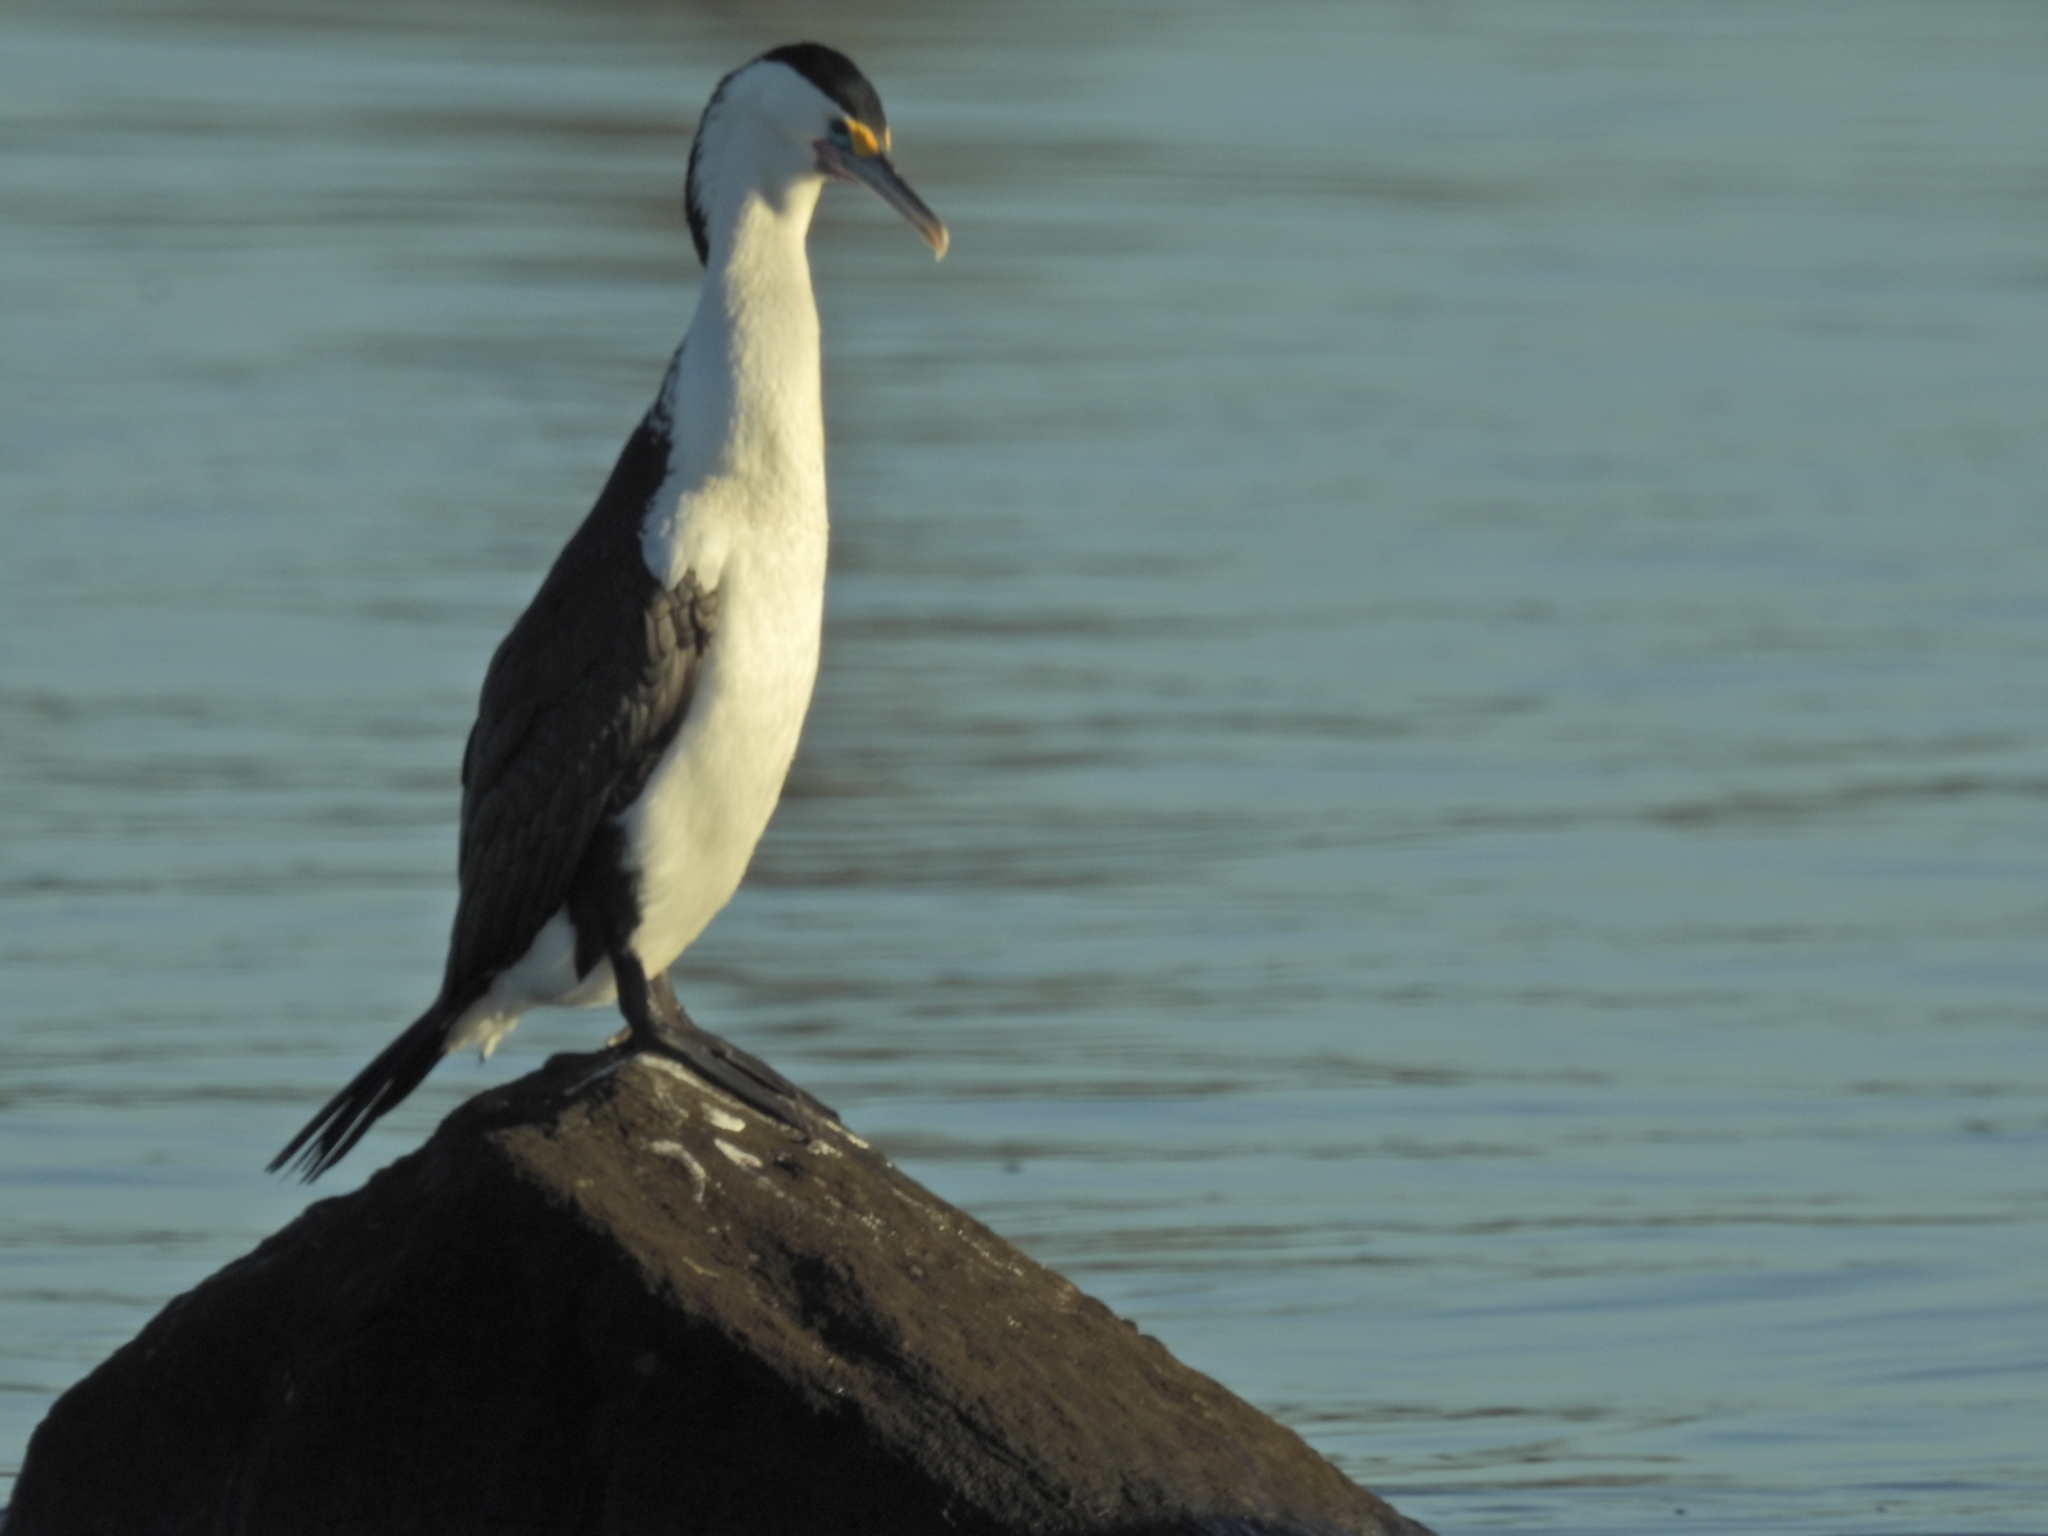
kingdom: Animalia
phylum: Chordata
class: Aves
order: Suliformes
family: Phalacrocoracidae
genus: Phalacrocorax
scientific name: Phalacrocorax varius
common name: Pied cormorant
